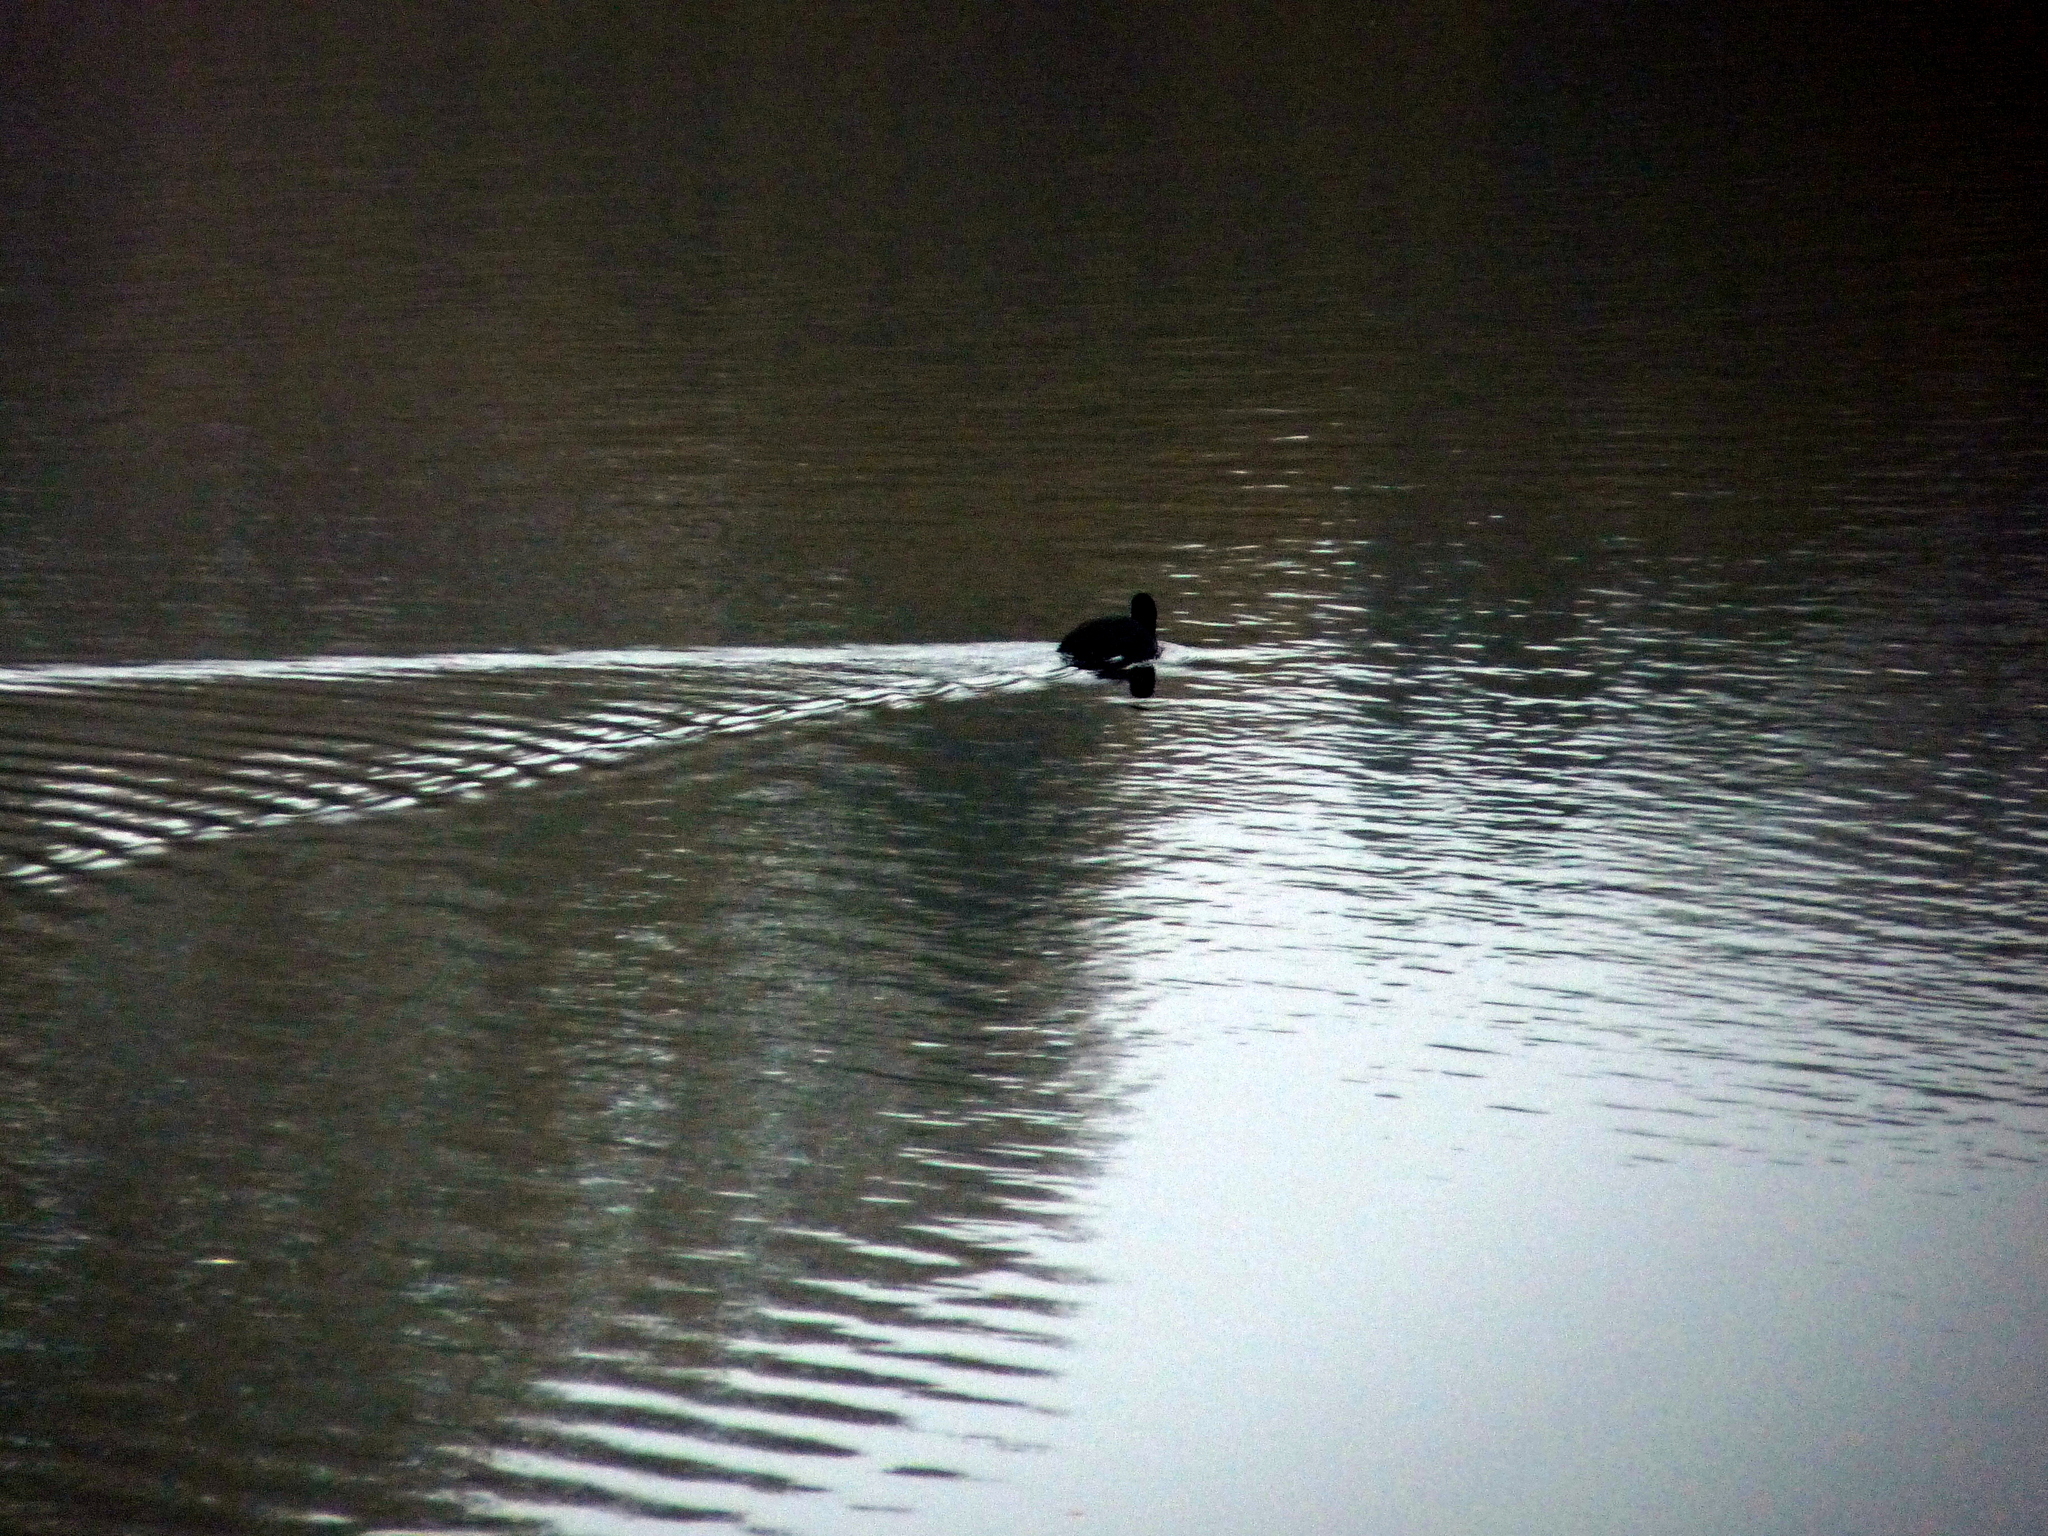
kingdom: Animalia
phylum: Chordata
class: Aves
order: Gruiformes
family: Rallidae
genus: Fulica
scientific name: Fulica atra
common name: Eurasian coot
